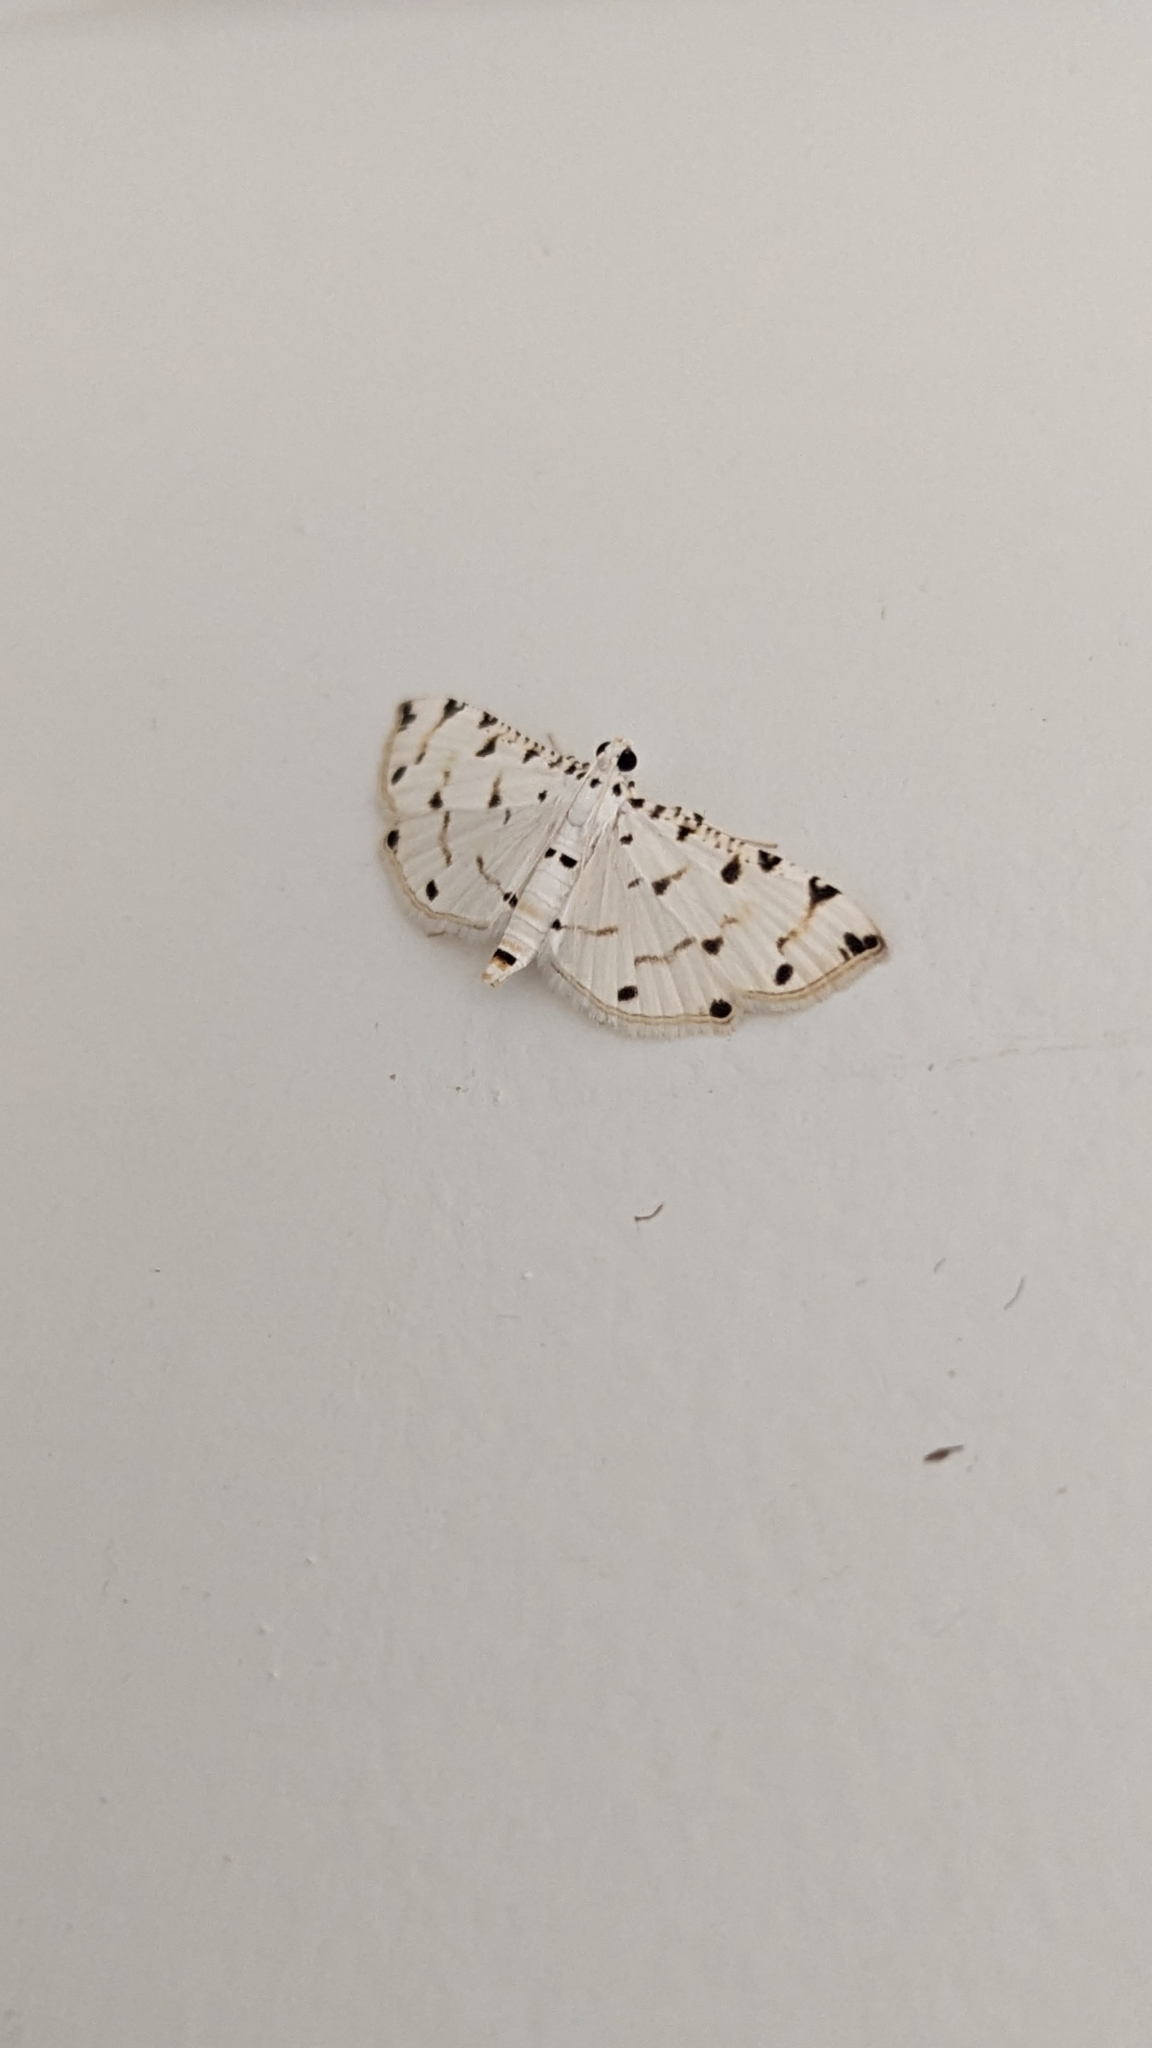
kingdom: Animalia
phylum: Arthropoda
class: Insecta
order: Lepidoptera
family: Crambidae
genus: Pycnarmon
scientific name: Pycnarmon cribrata
